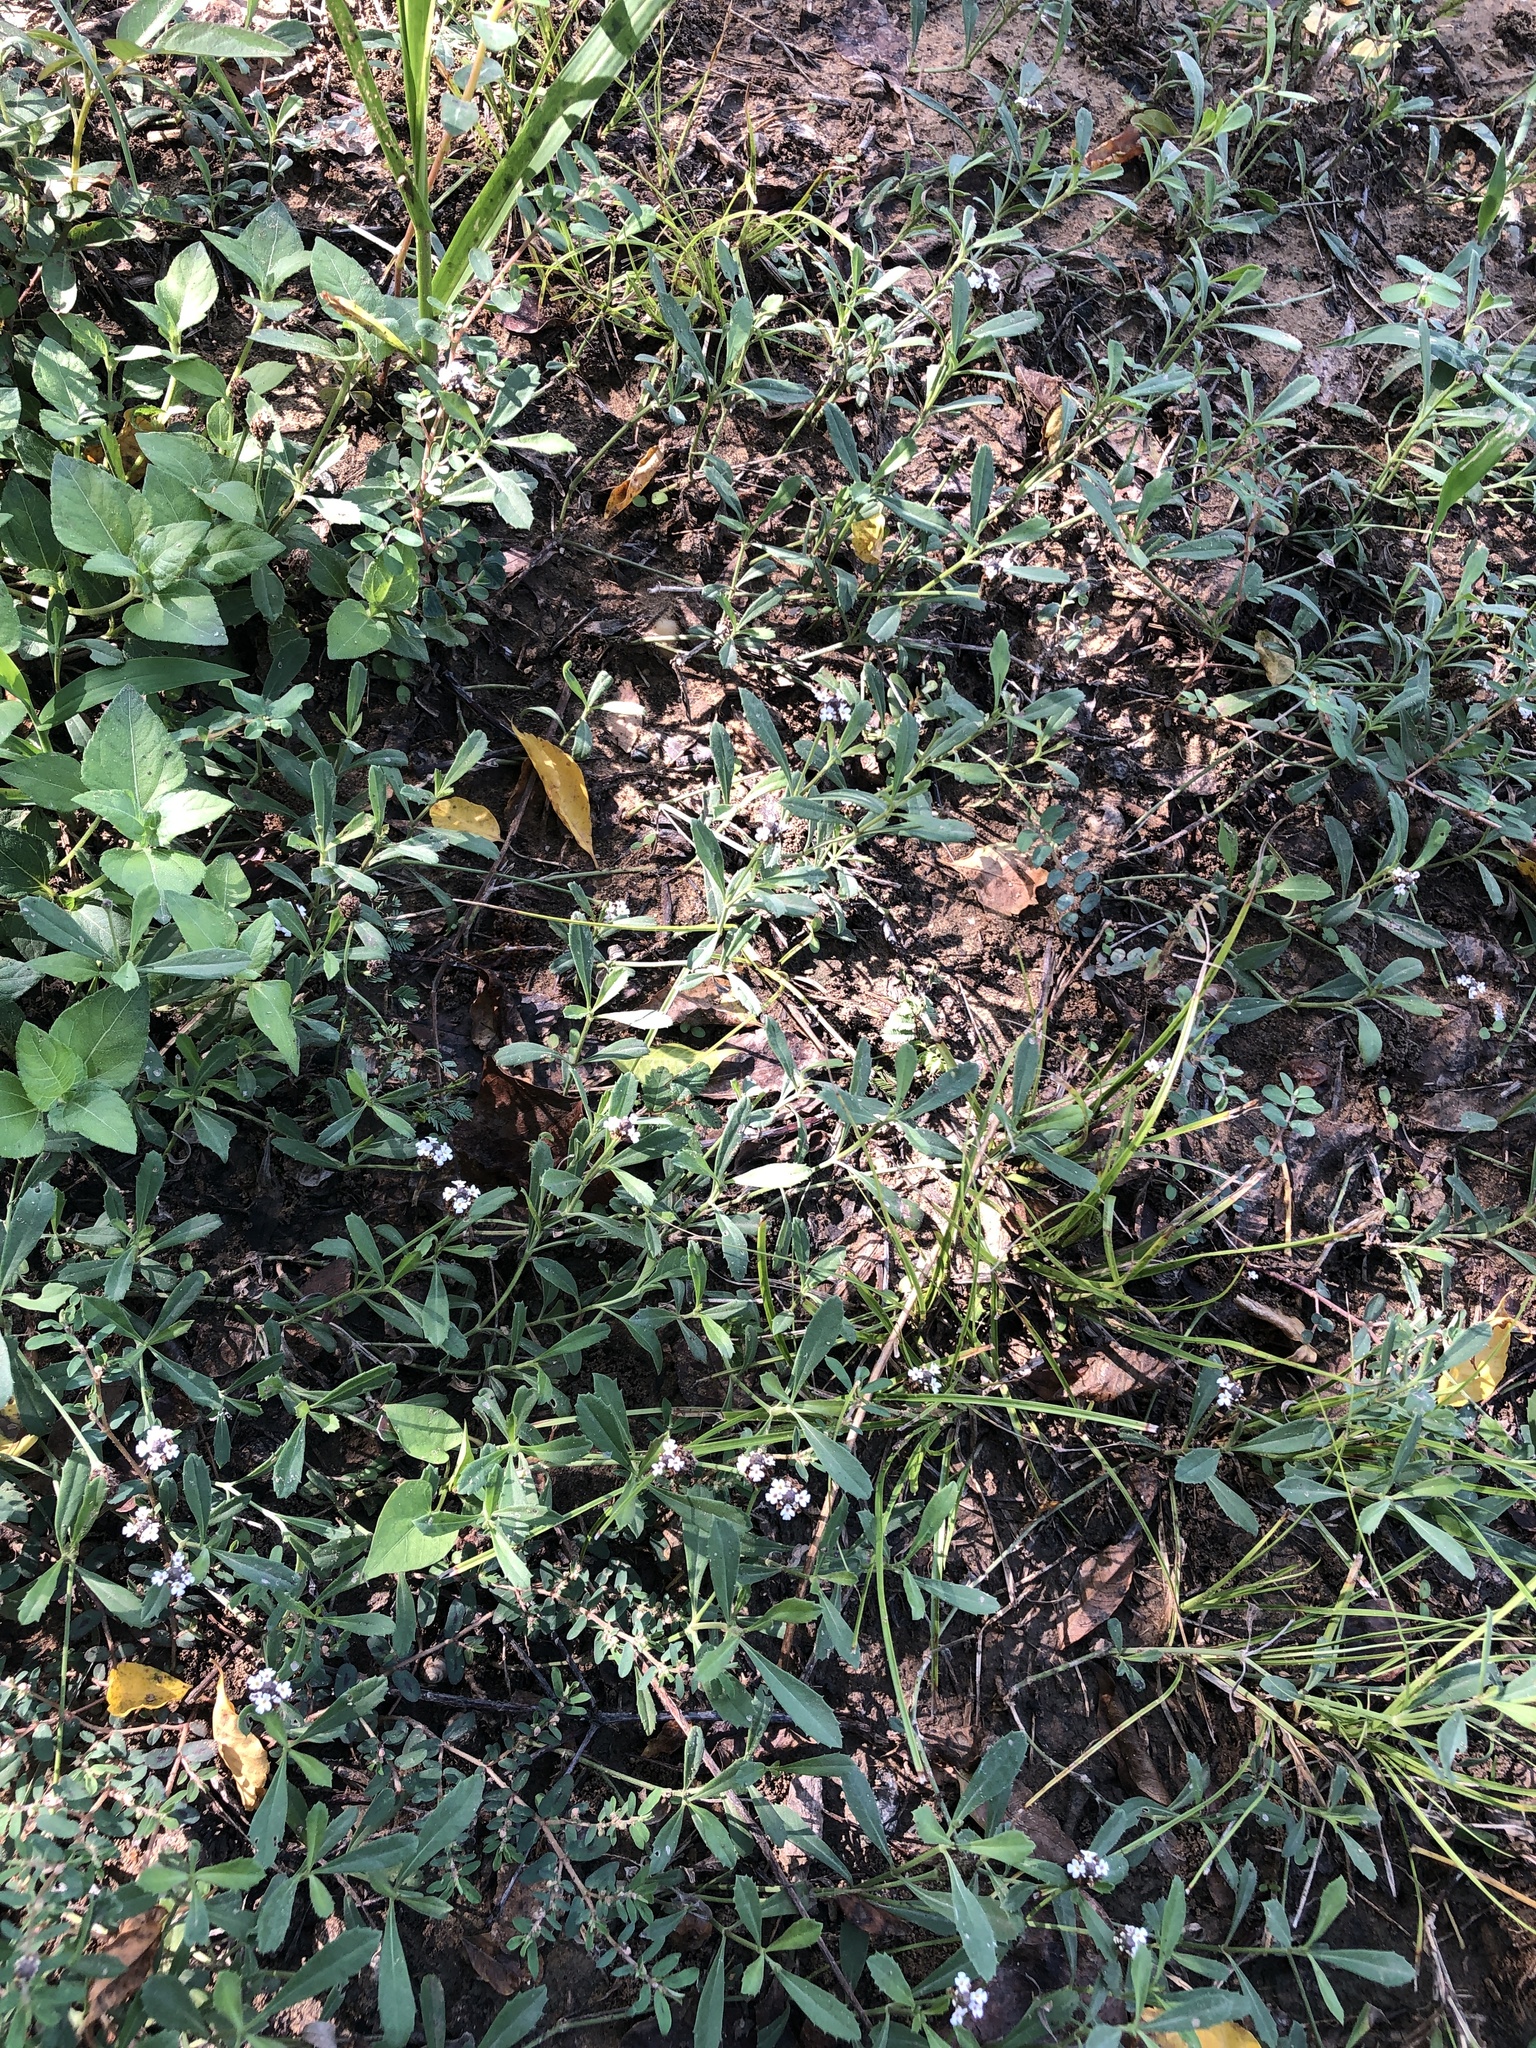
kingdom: Plantae
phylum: Tracheophyta
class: Magnoliopsida
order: Lamiales
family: Verbenaceae
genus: Phyla
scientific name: Phyla nodiflora
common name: Frogfruit
